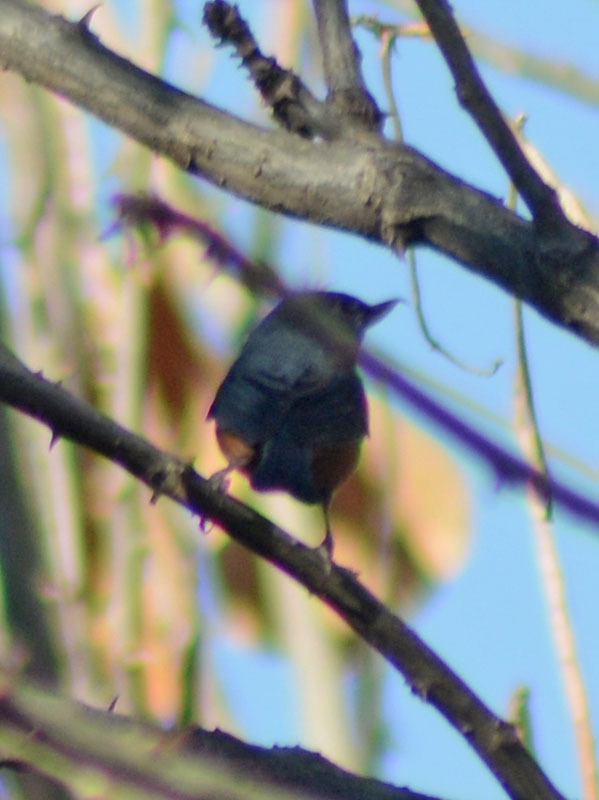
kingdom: Animalia
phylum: Chordata
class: Aves
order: Passeriformes
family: Thraupidae
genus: Diglossa
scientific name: Diglossa baritula
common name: Cinnamon-bellied flowerpiercer
